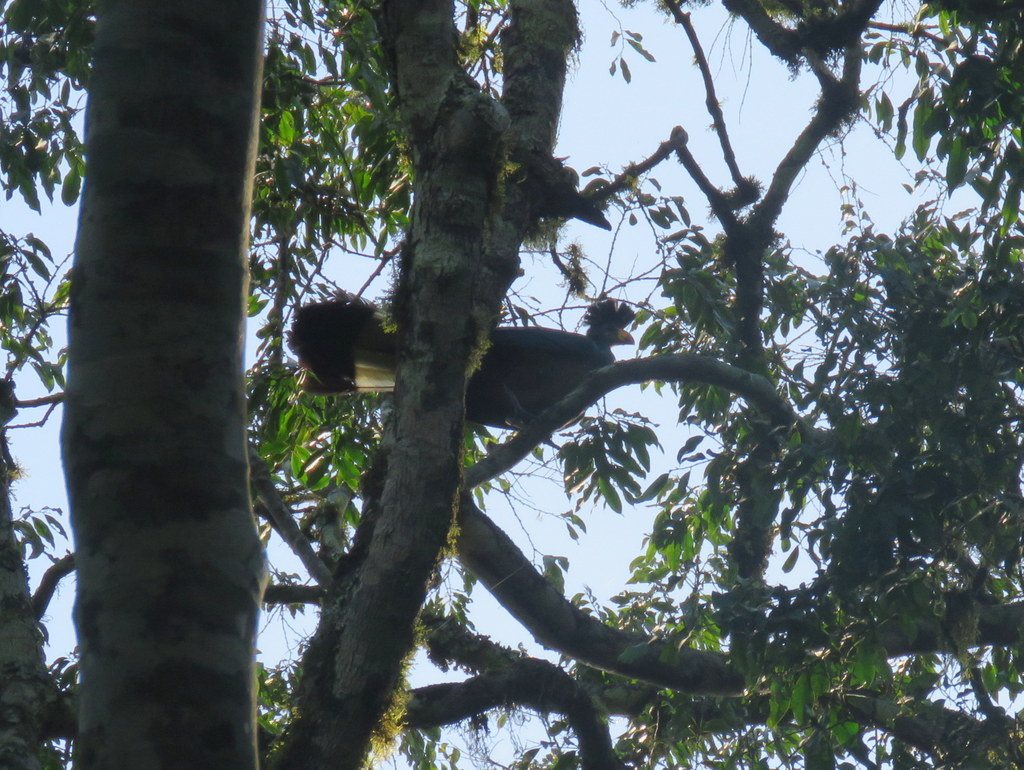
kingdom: Animalia
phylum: Chordata
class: Aves
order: Musophagiformes
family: Musophagidae
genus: Corythaeola
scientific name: Corythaeola cristata
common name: Great blue turaco
